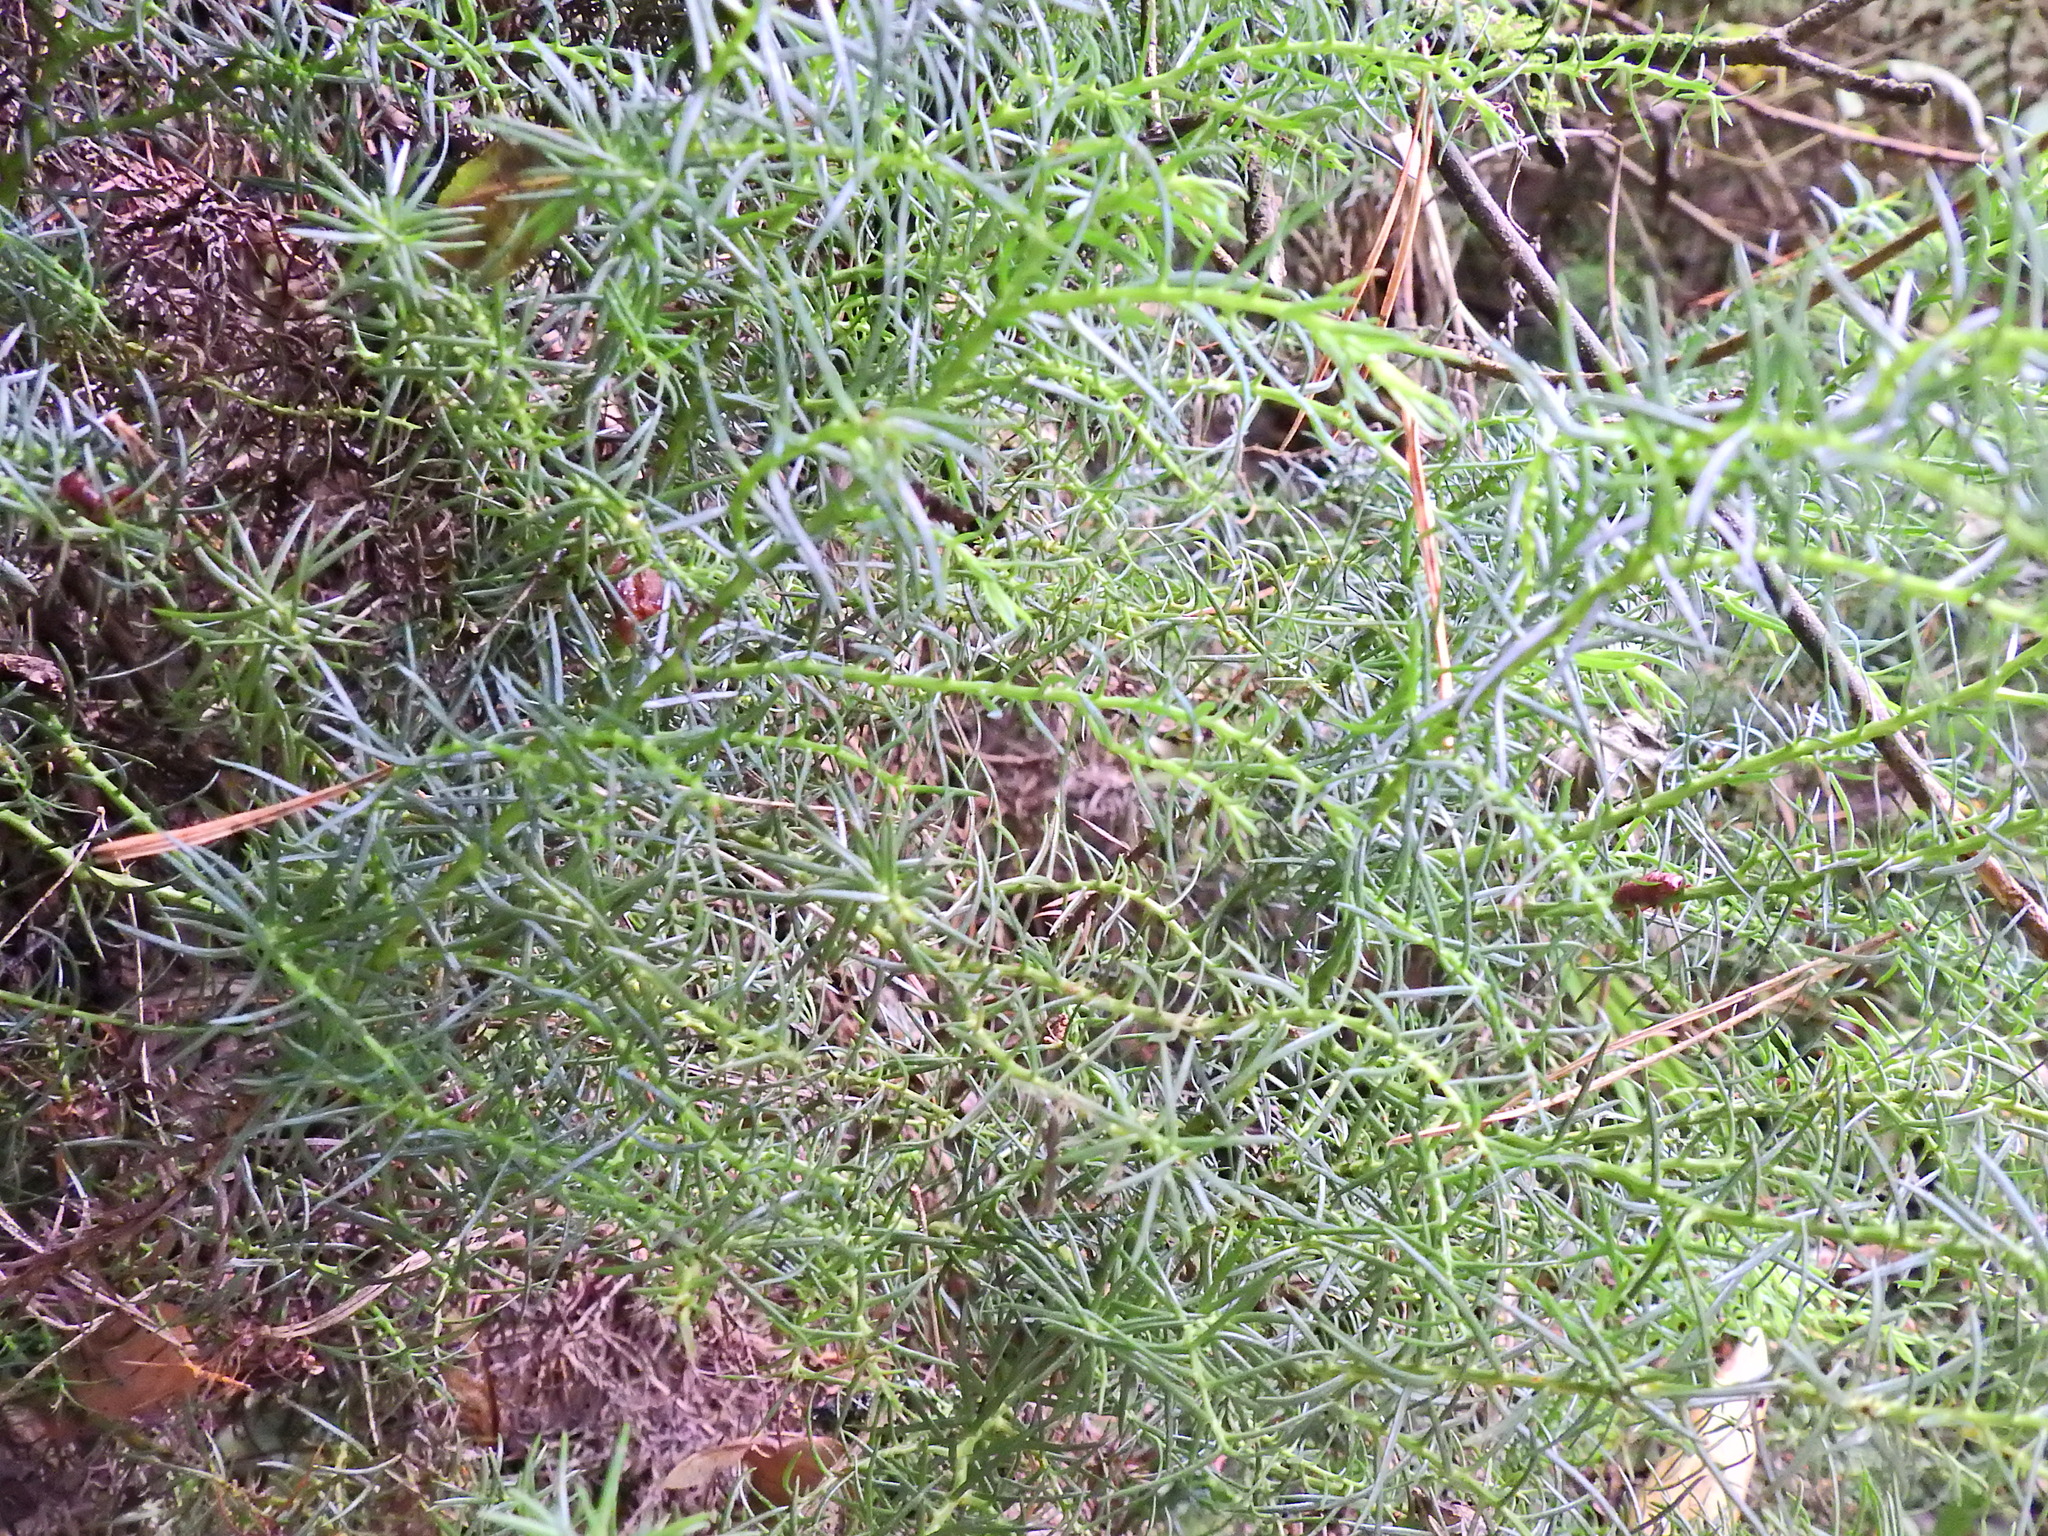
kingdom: Plantae
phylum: Tracheophyta
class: Magnoliopsida
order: Fabales
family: Fabaceae
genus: Ulex
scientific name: Ulex europaeus
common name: Common gorse
